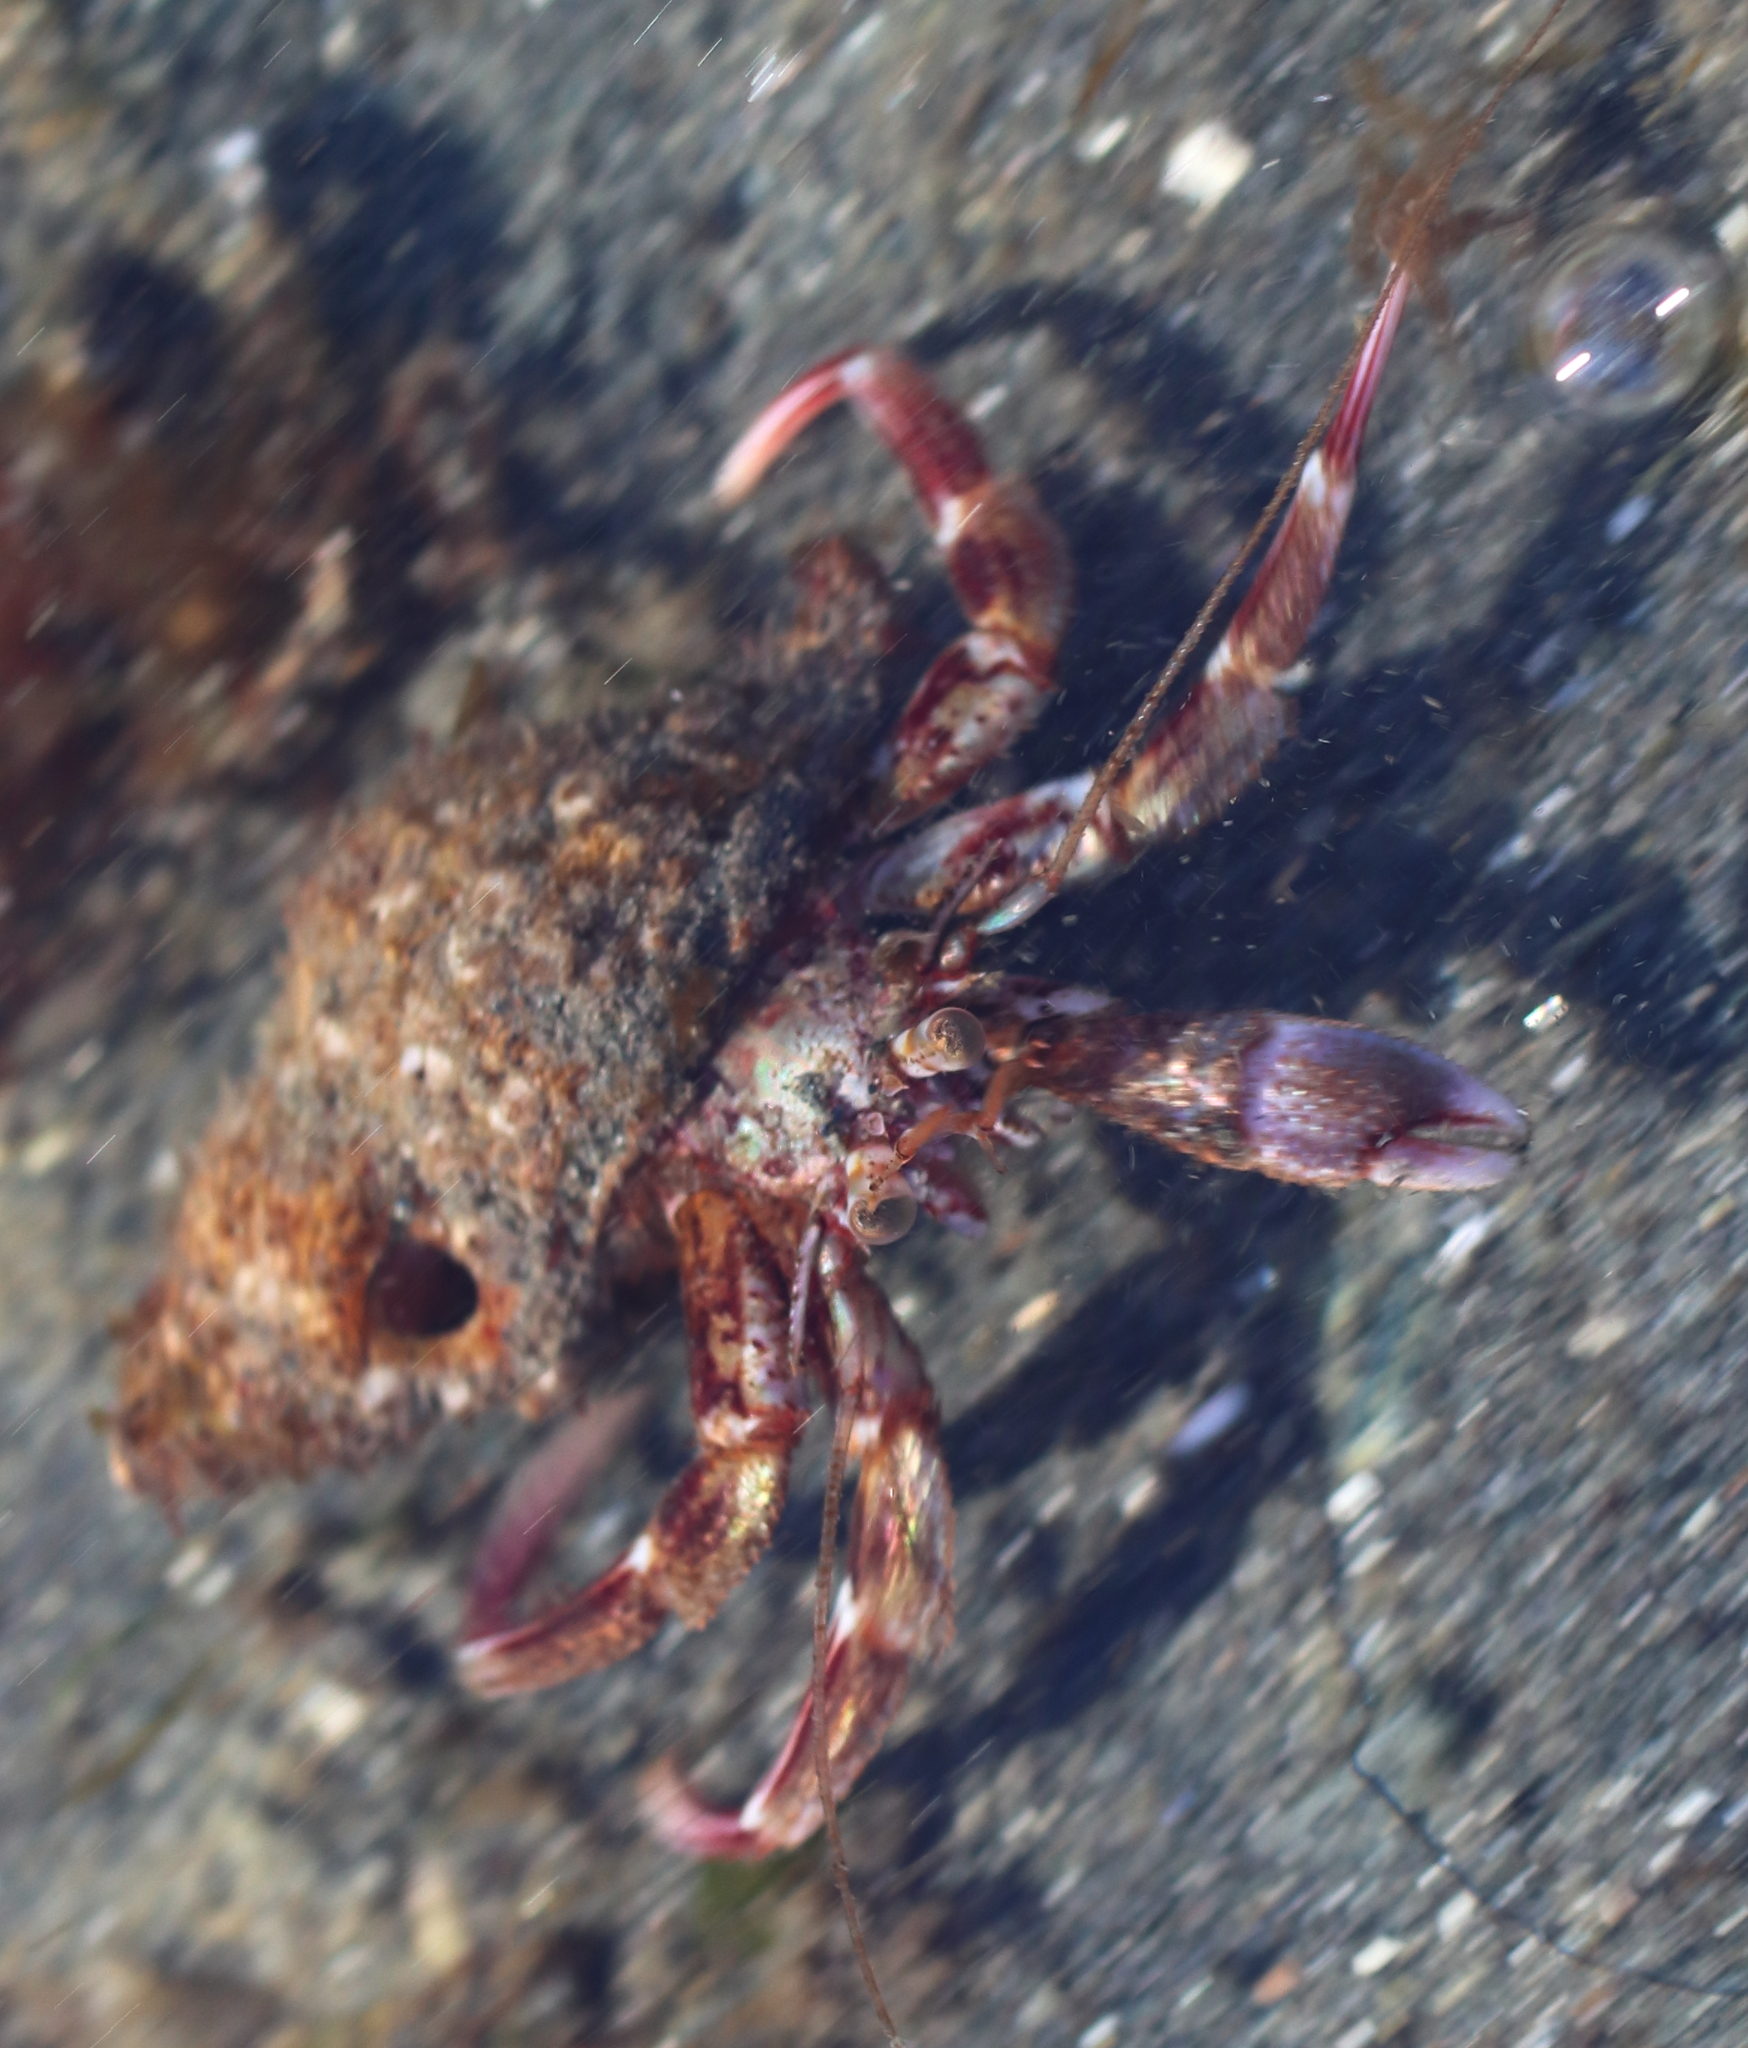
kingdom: Animalia
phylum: Arthropoda
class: Malacostraca
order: Decapoda
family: Paguridae
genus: Pagurus
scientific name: Pagurus ochotensis
